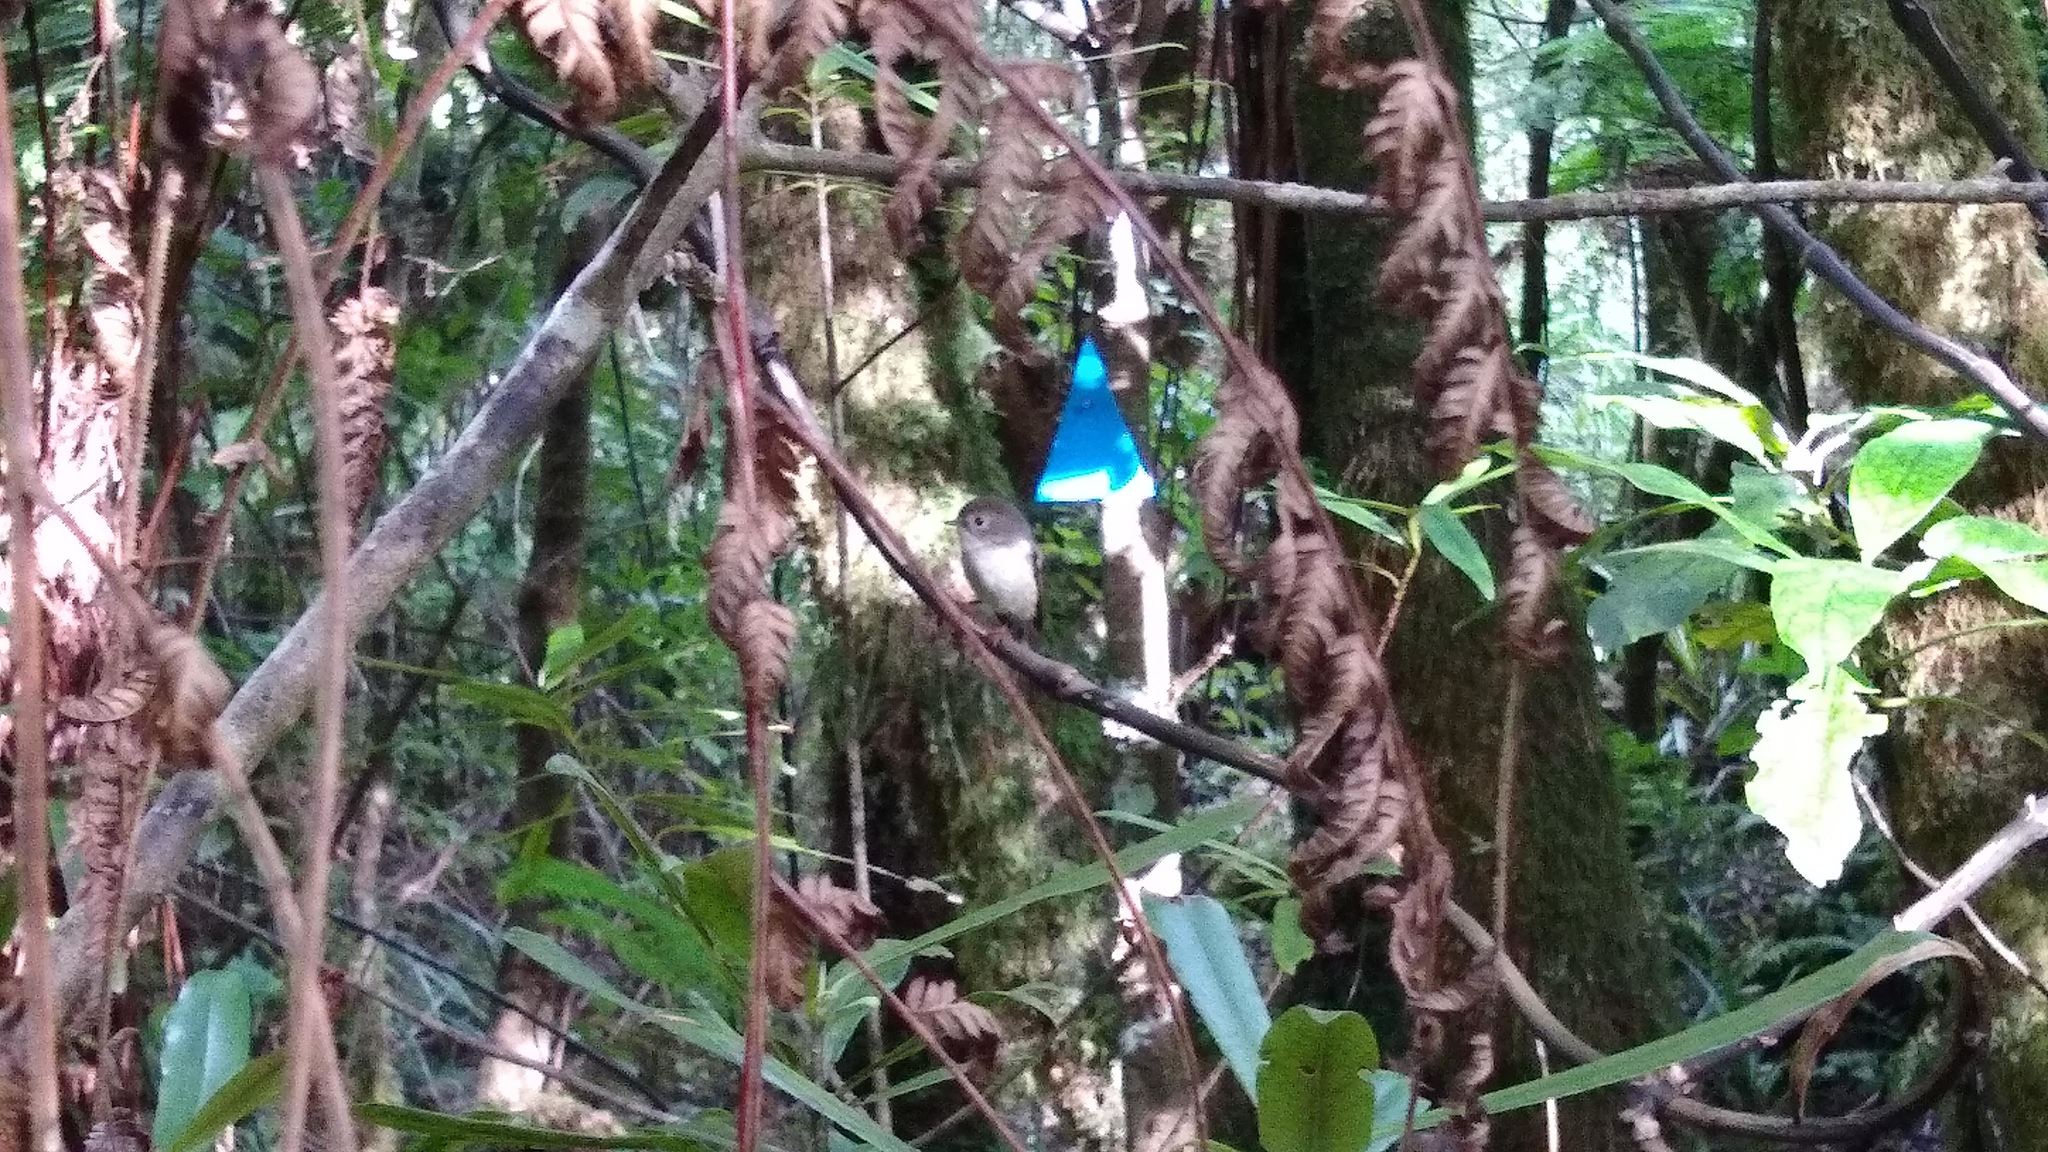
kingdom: Animalia
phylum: Chordata
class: Aves
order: Passeriformes
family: Petroicidae
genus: Petroica
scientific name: Petroica macrocephala
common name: Tomtit
